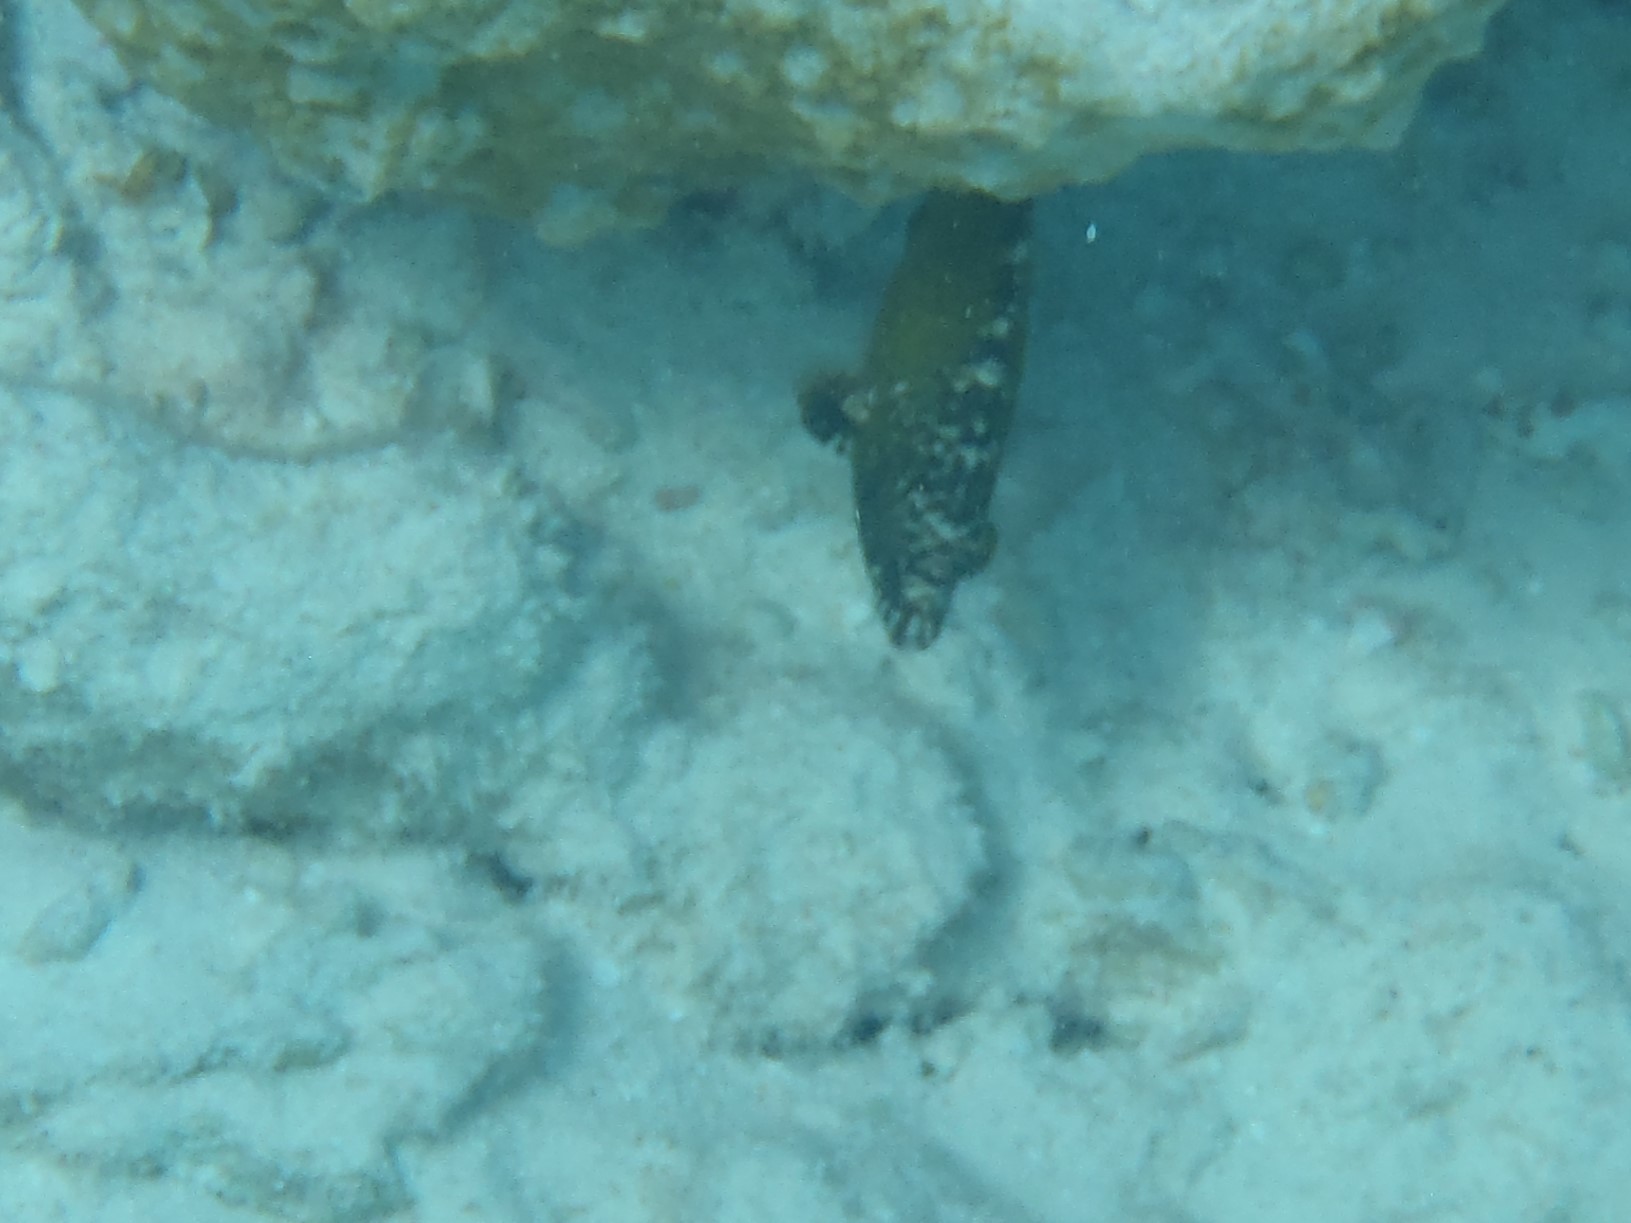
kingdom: Animalia
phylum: Chordata
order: Perciformes
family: Labridae
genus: Cheilinus
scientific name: Cheilinus chlorourus
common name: Floral wrasse
